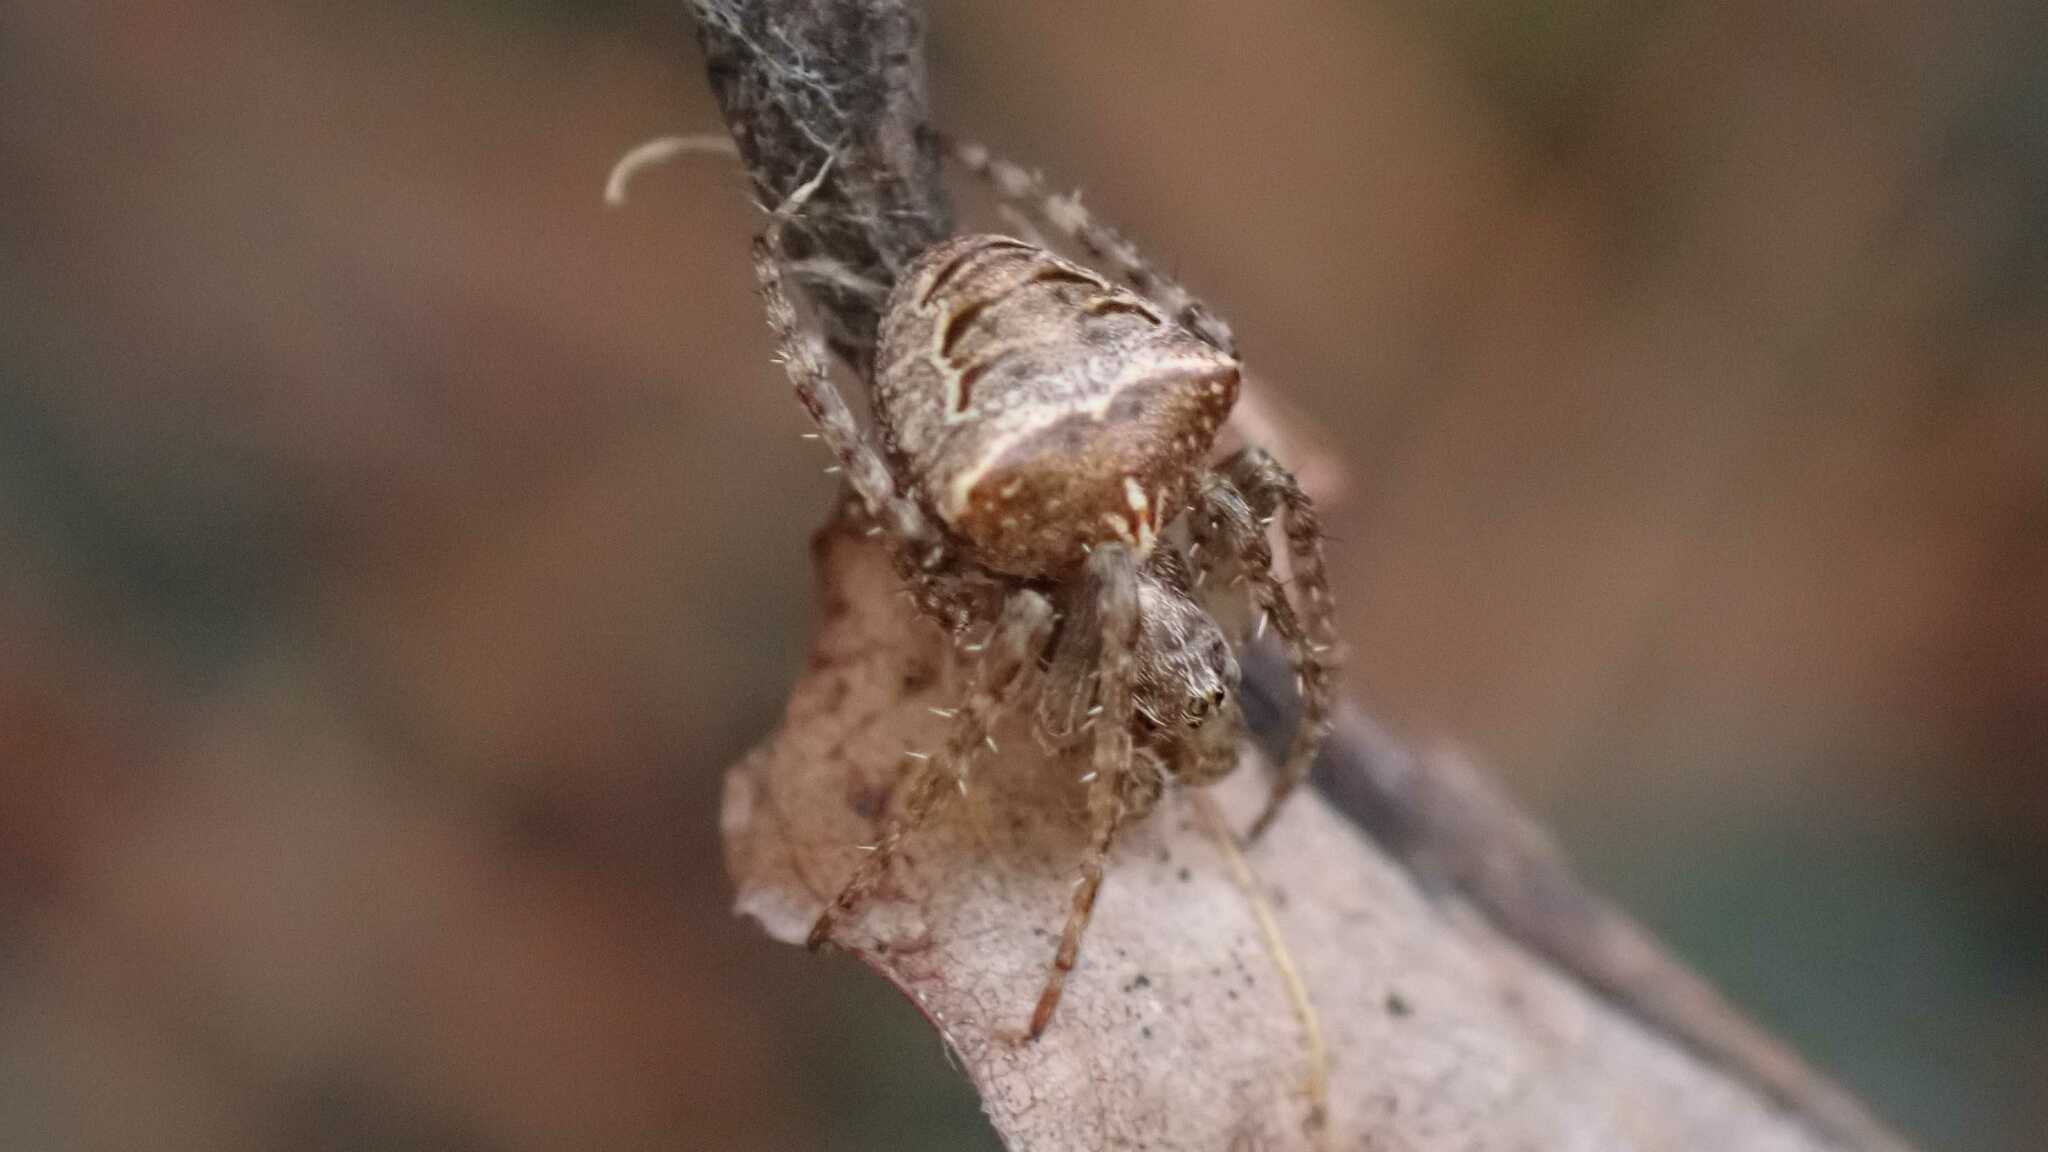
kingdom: Animalia
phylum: Arthropoda
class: Arachnida
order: Araneae
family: Araneidae
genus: Gibbaranea
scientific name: Gibbaranea bituberculata
